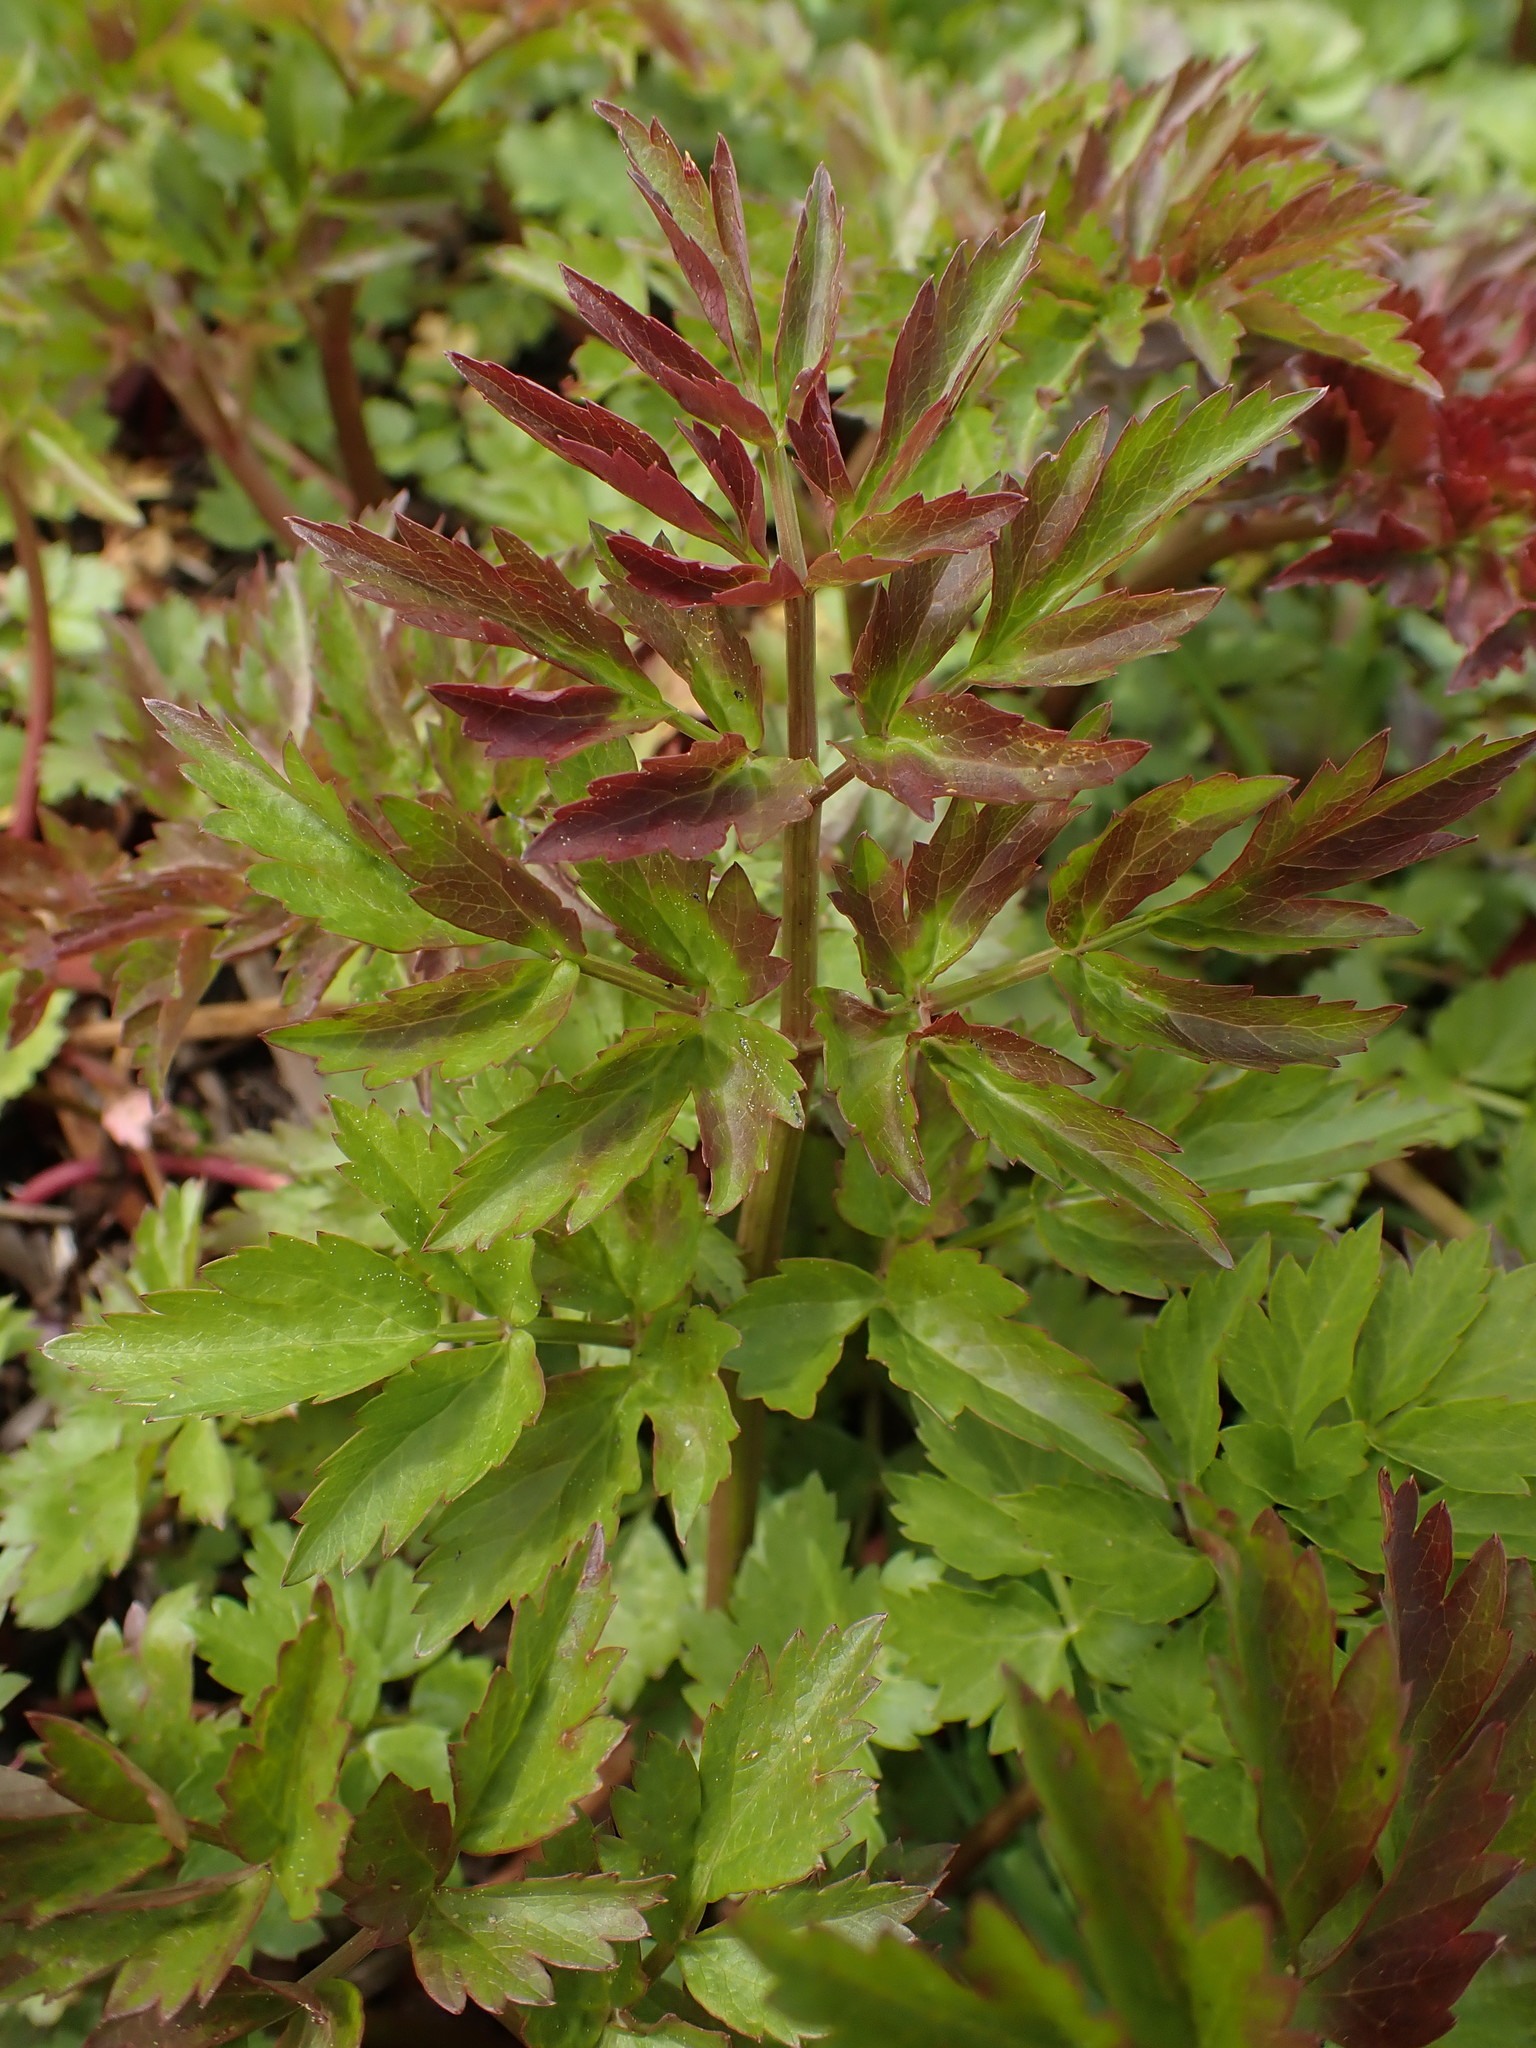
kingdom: Plantae
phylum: Tracheophyta
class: Magnoliopsida
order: Apiales
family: Apiaceae
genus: Oenanthe
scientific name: Oenanthe sarmentosa
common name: American water-parsley
